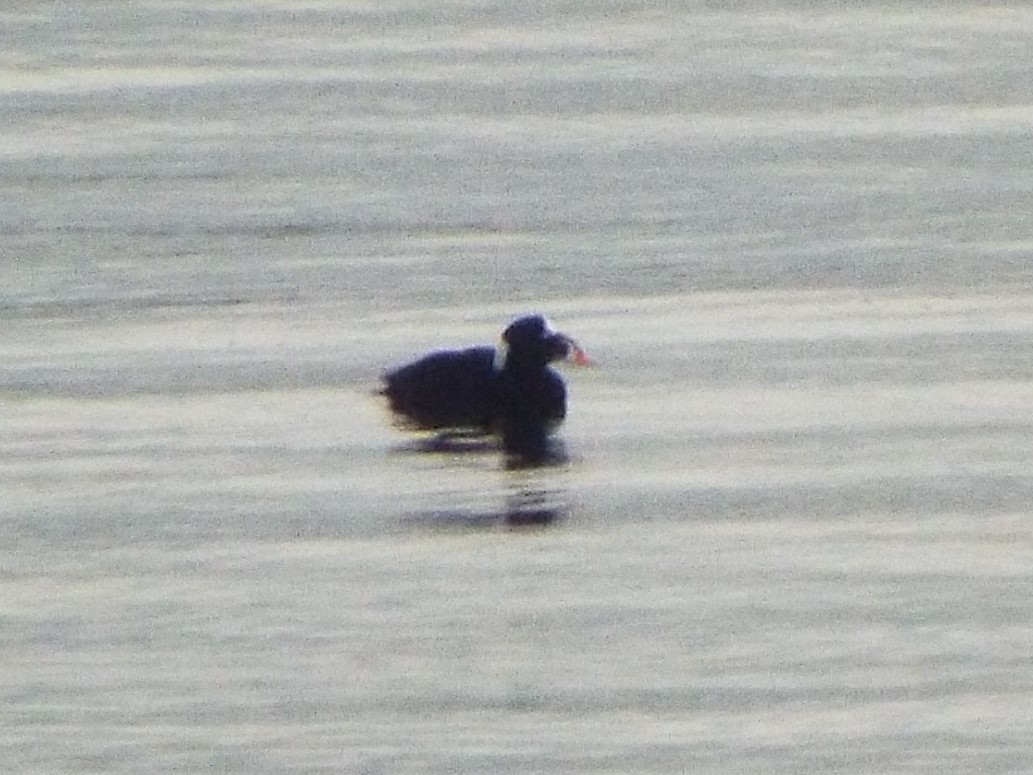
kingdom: Animalia
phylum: Chordata
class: Aves
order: Anseriformes
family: Anatidae
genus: Melanitta
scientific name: Melanitta perspicillata
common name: Surf scoter
